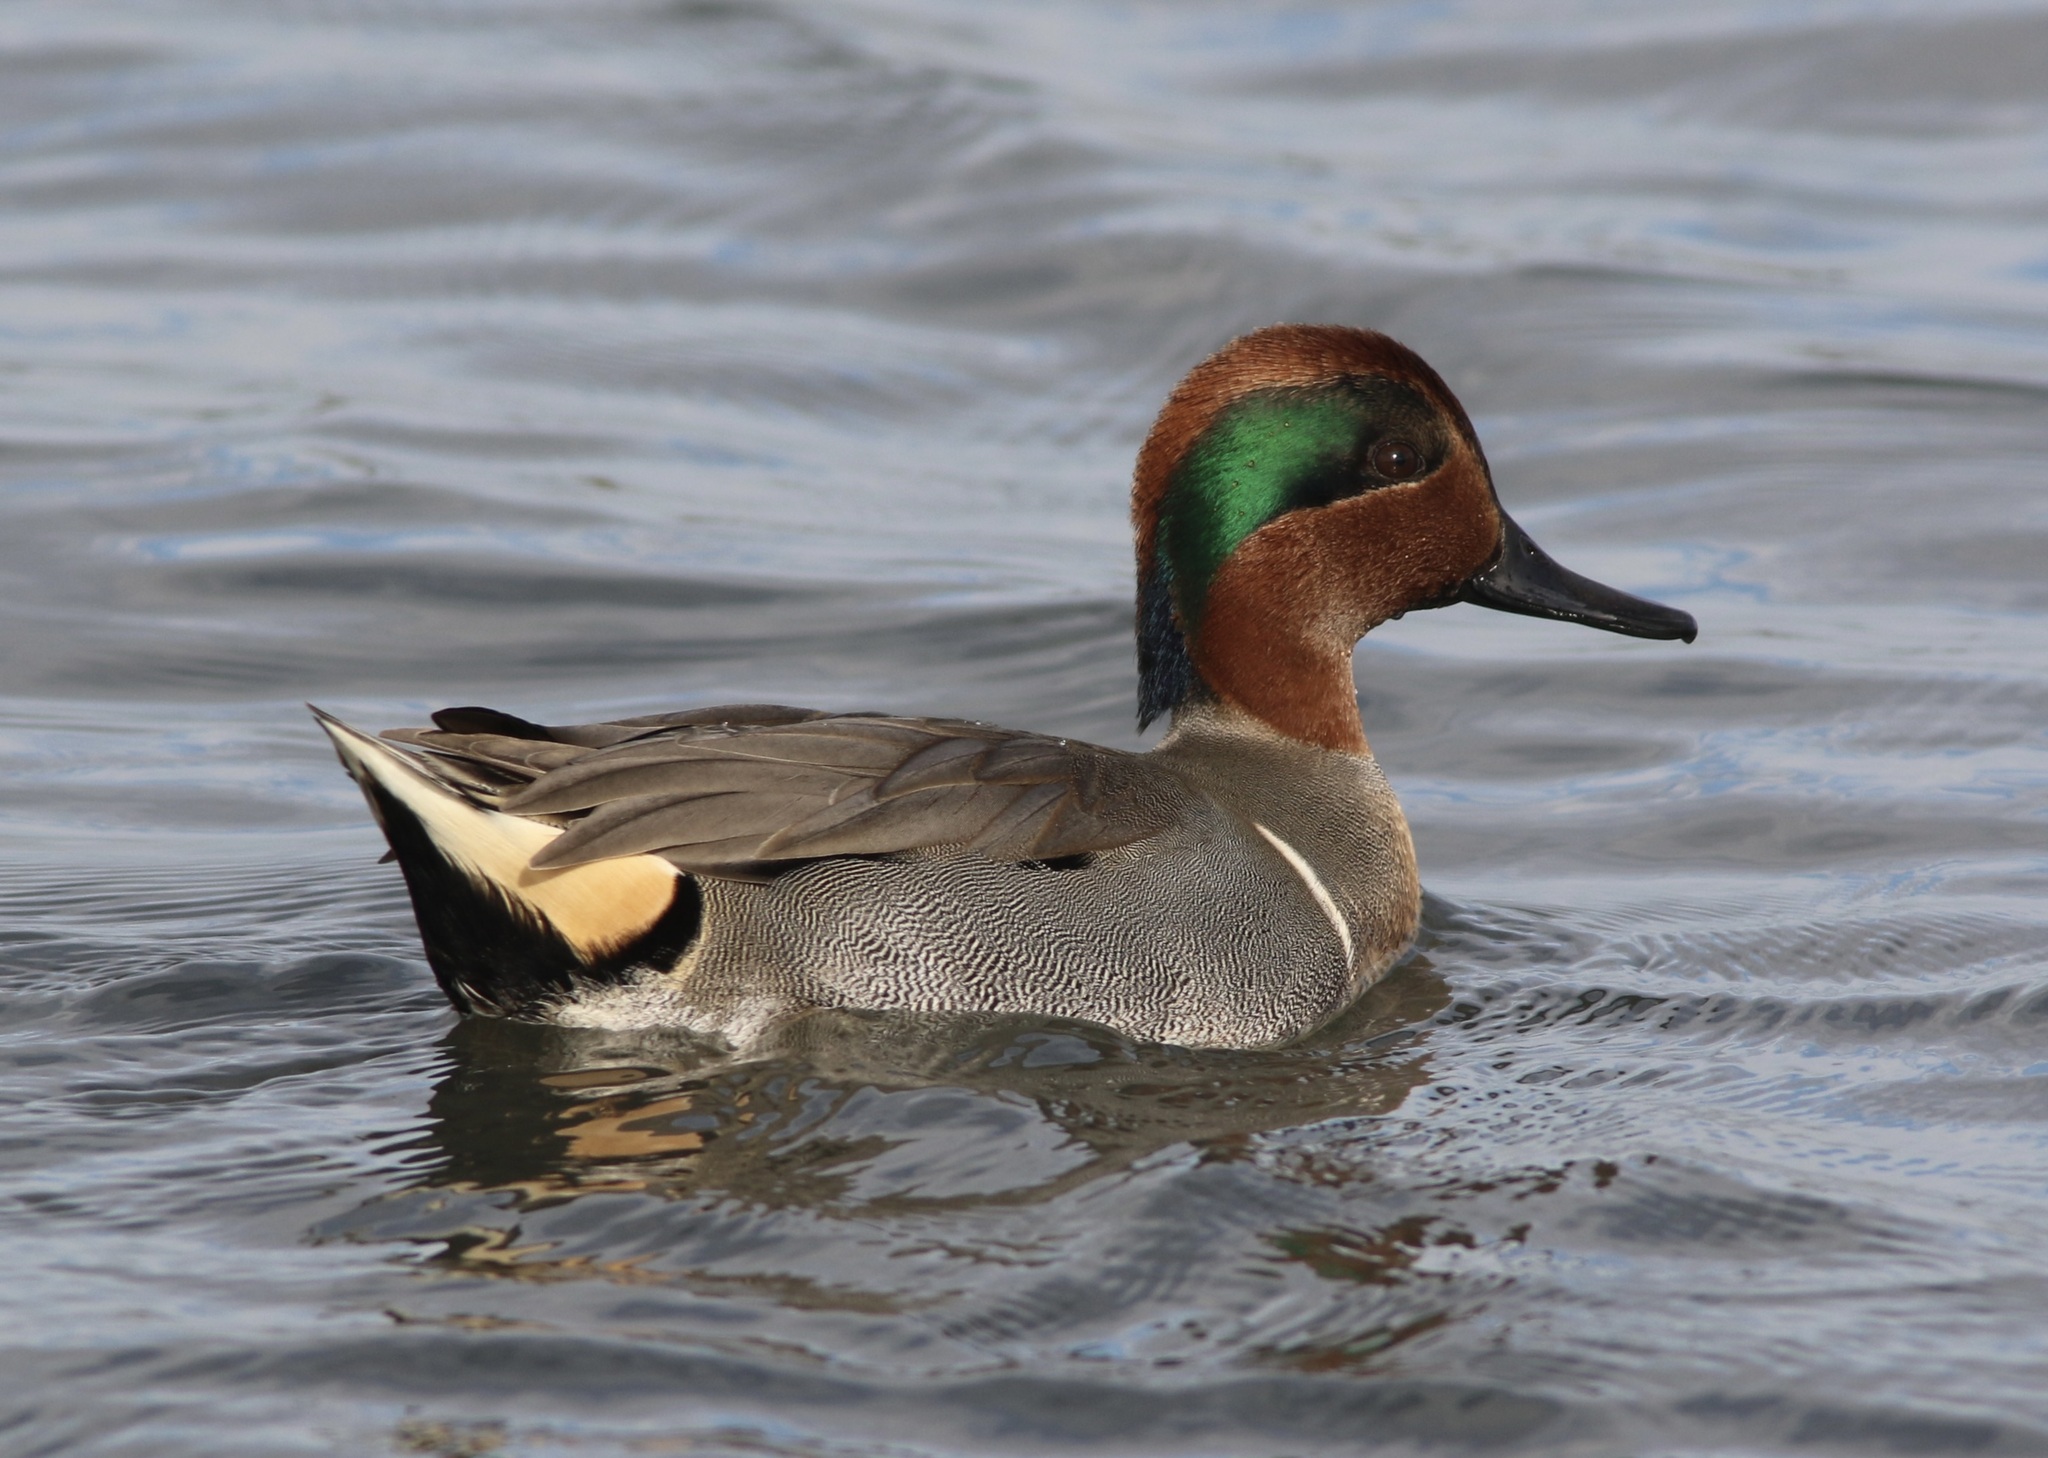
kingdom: Animalia
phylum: Chordata
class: Aves
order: Anseriformes
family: Anatidae
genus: Anas
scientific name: Anas crecca
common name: Eurasian teal
